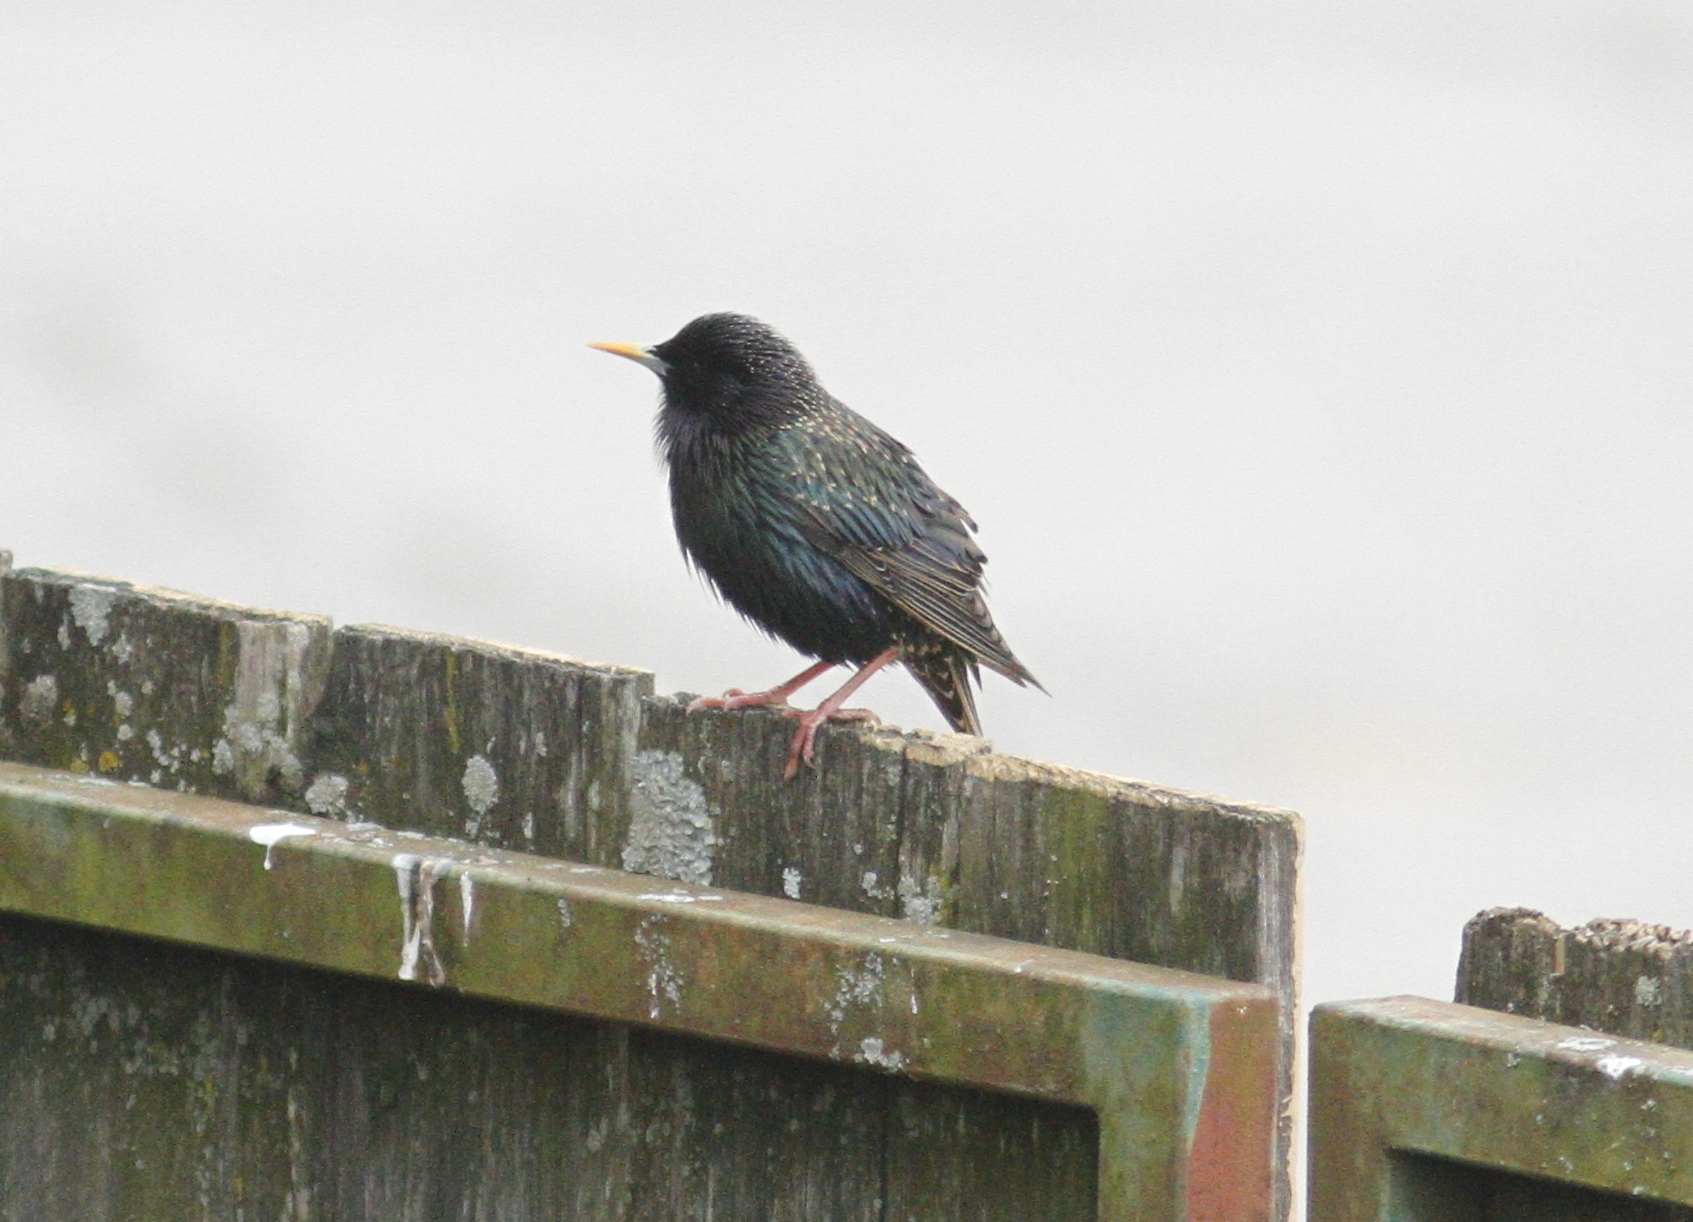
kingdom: Animalia
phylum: Chordata
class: Aves
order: Passeriformes
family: Sturnidae
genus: Sturnus
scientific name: Sturnus vulgaris
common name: Common starling
